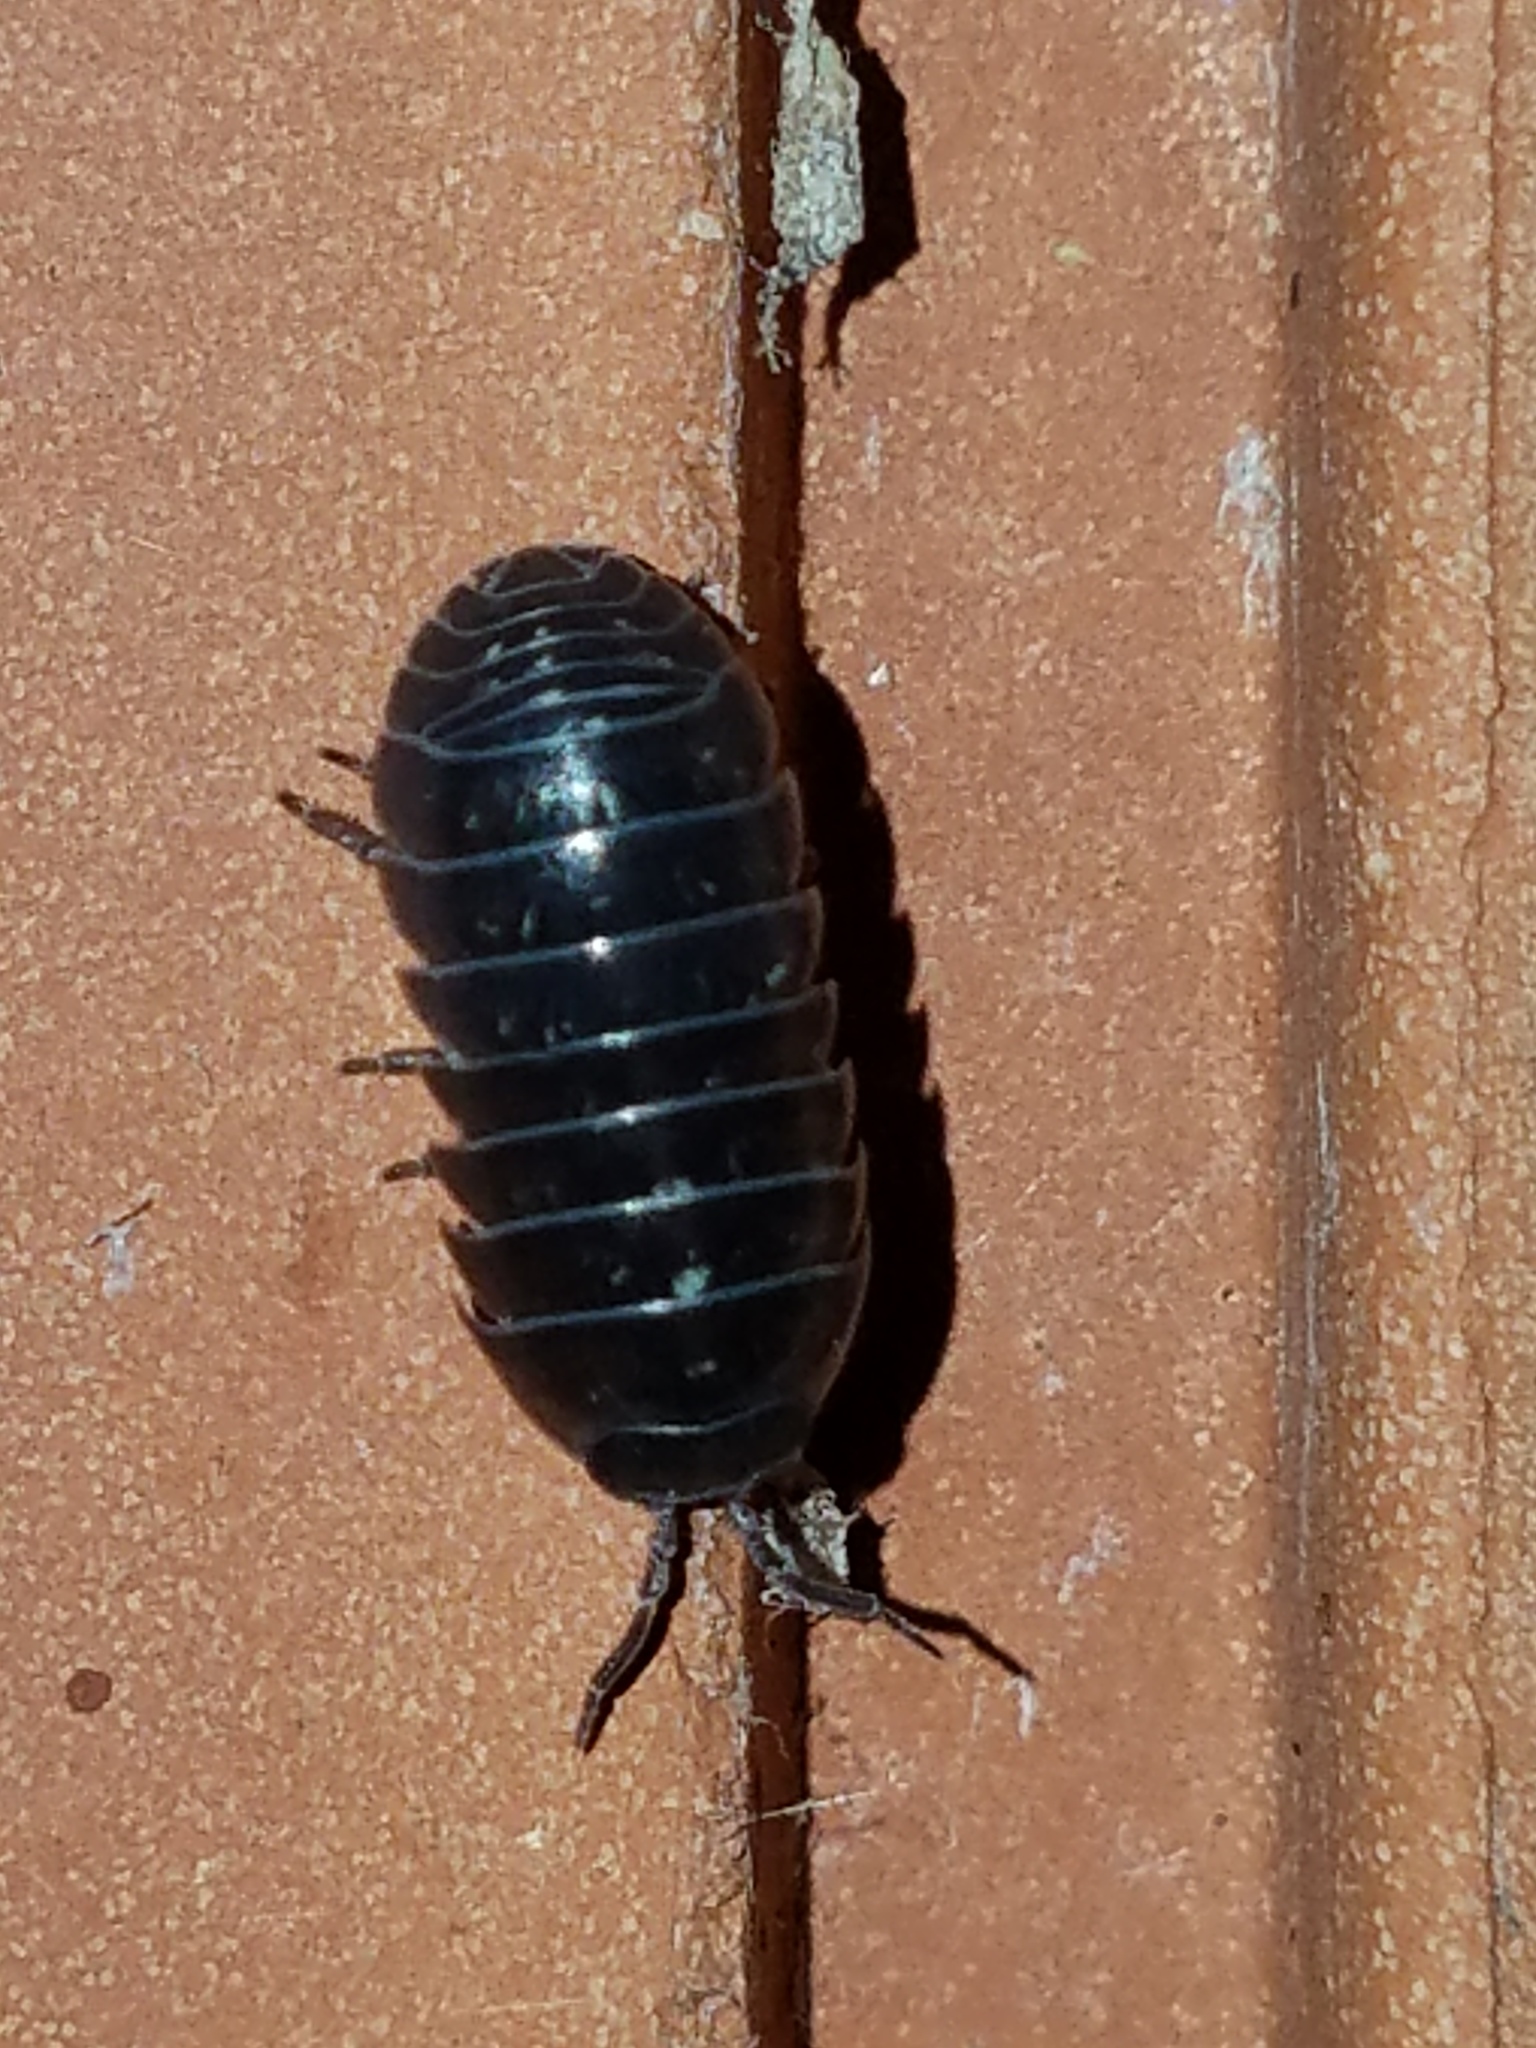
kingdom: Animalia
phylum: Arthropoda
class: Malacostraca
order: Isopoda
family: Armadillidiidae
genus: Armadillidium
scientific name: Armadillidium vulgare
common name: Common pill woodlouse
